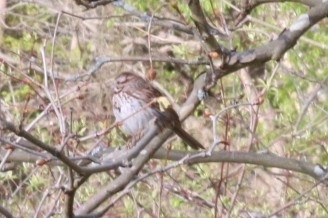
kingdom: Animalia
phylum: Chordata
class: Aves
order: Passeriformes
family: Passerellidae
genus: Melospiza
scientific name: Melospiza melodia
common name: Song sparrow
